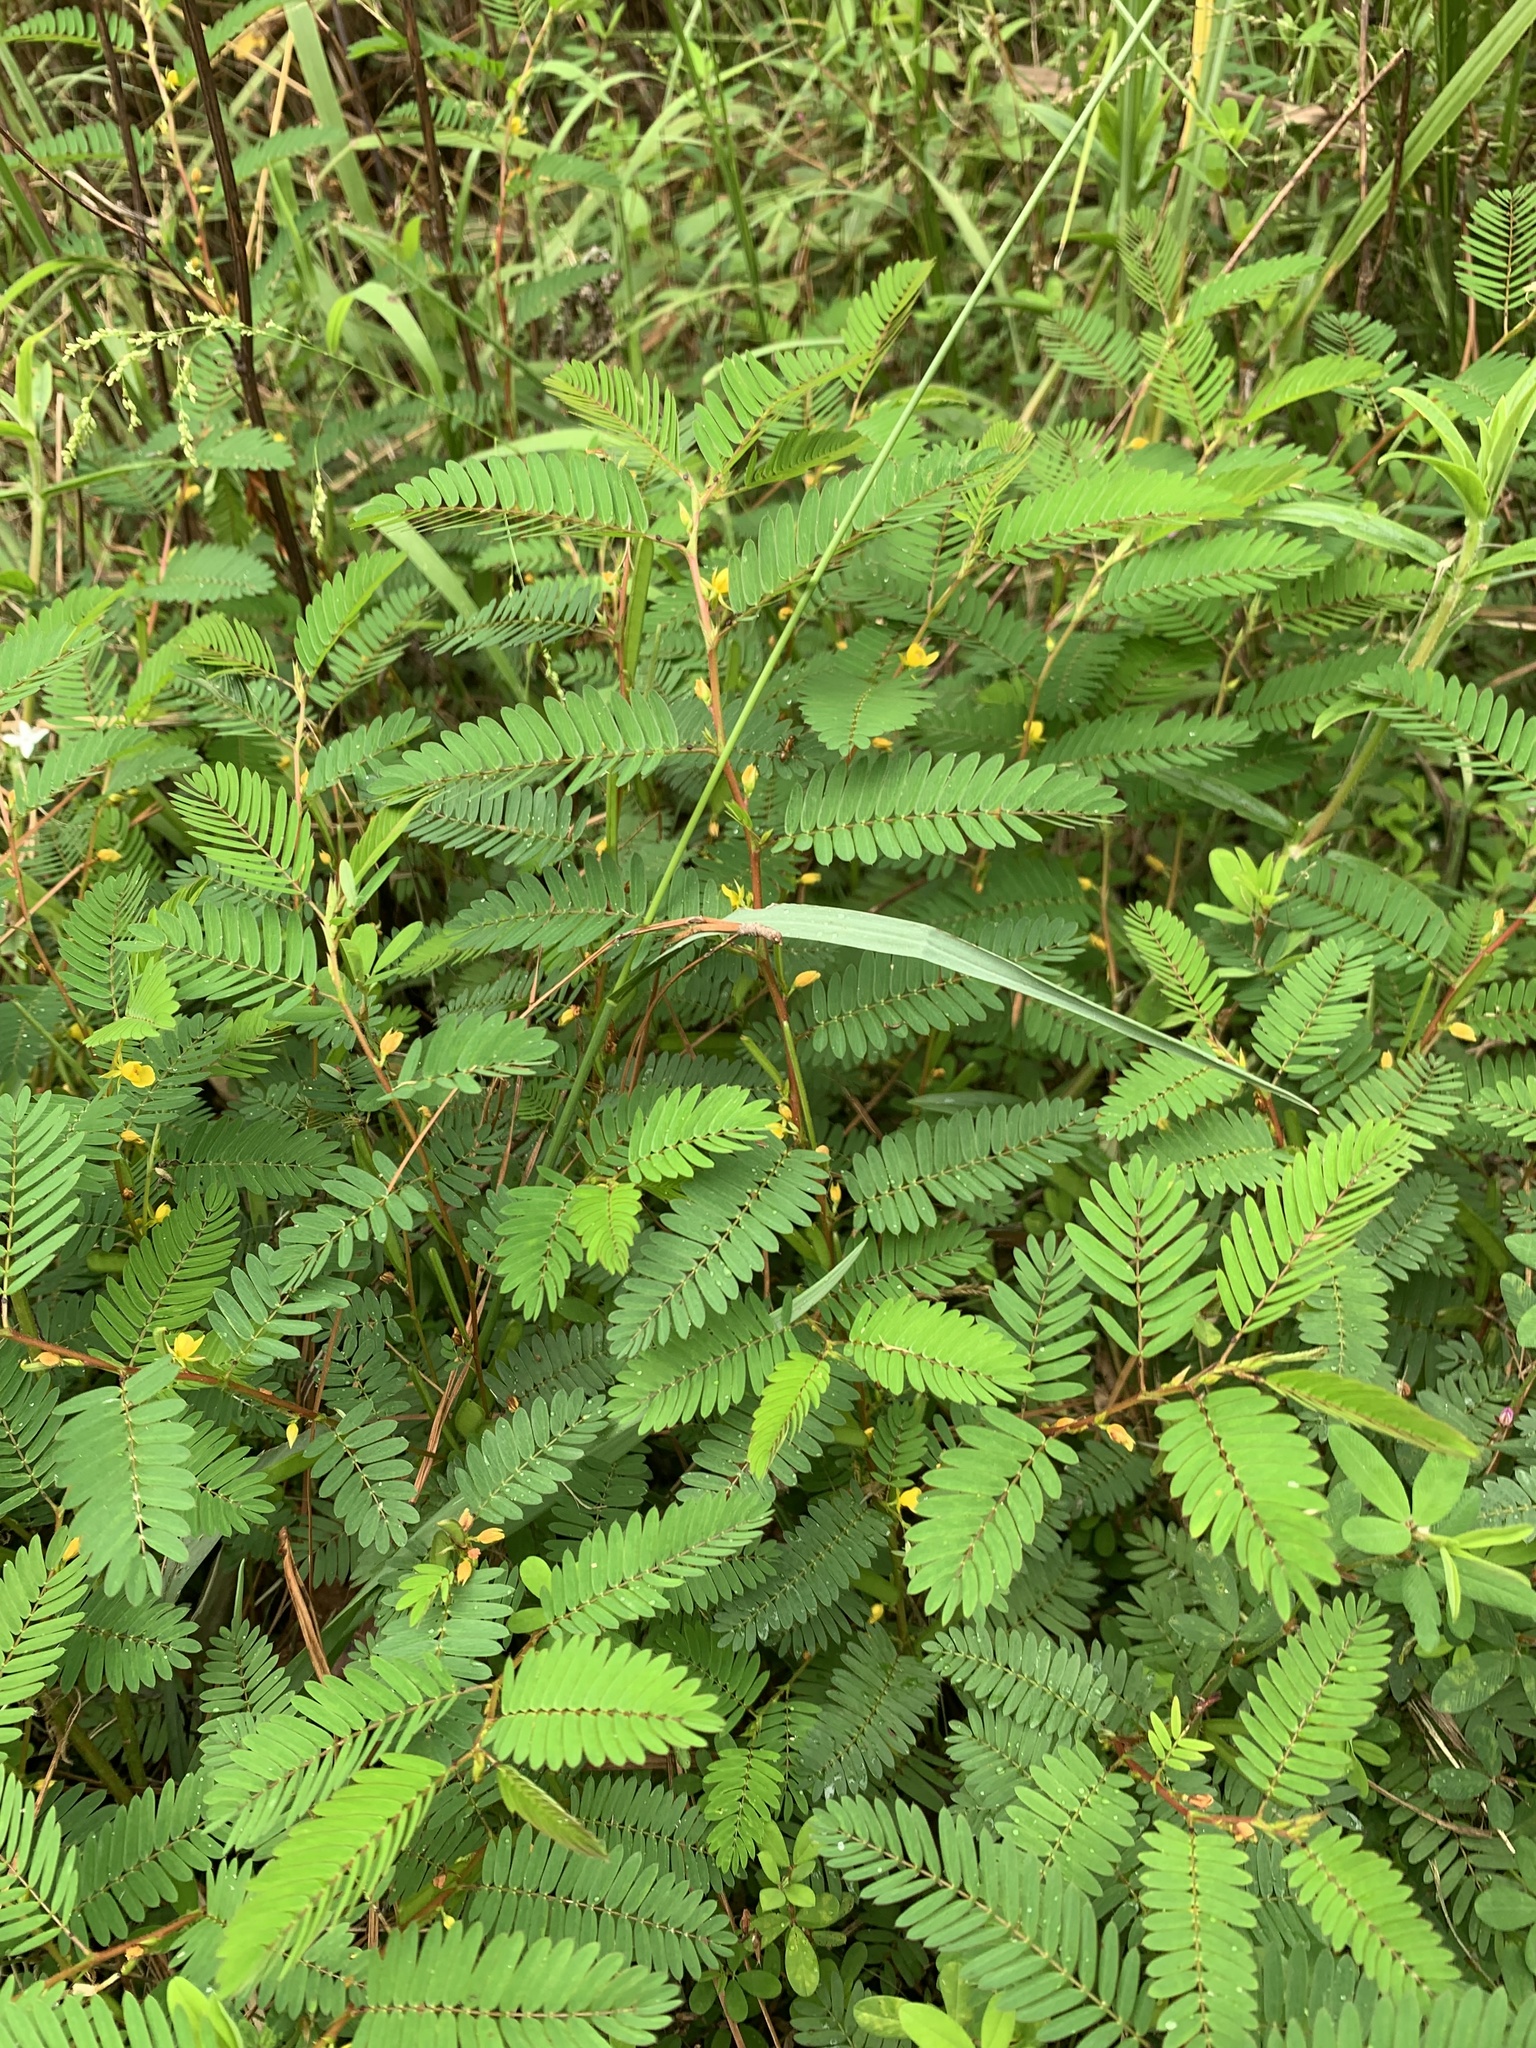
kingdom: Plantae
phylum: Tracheophyta
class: Magnoliopsida
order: Fabales
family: Fabaceae
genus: Chamaecrista
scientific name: Chamaecrista nictitans
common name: Sensitive cassia
